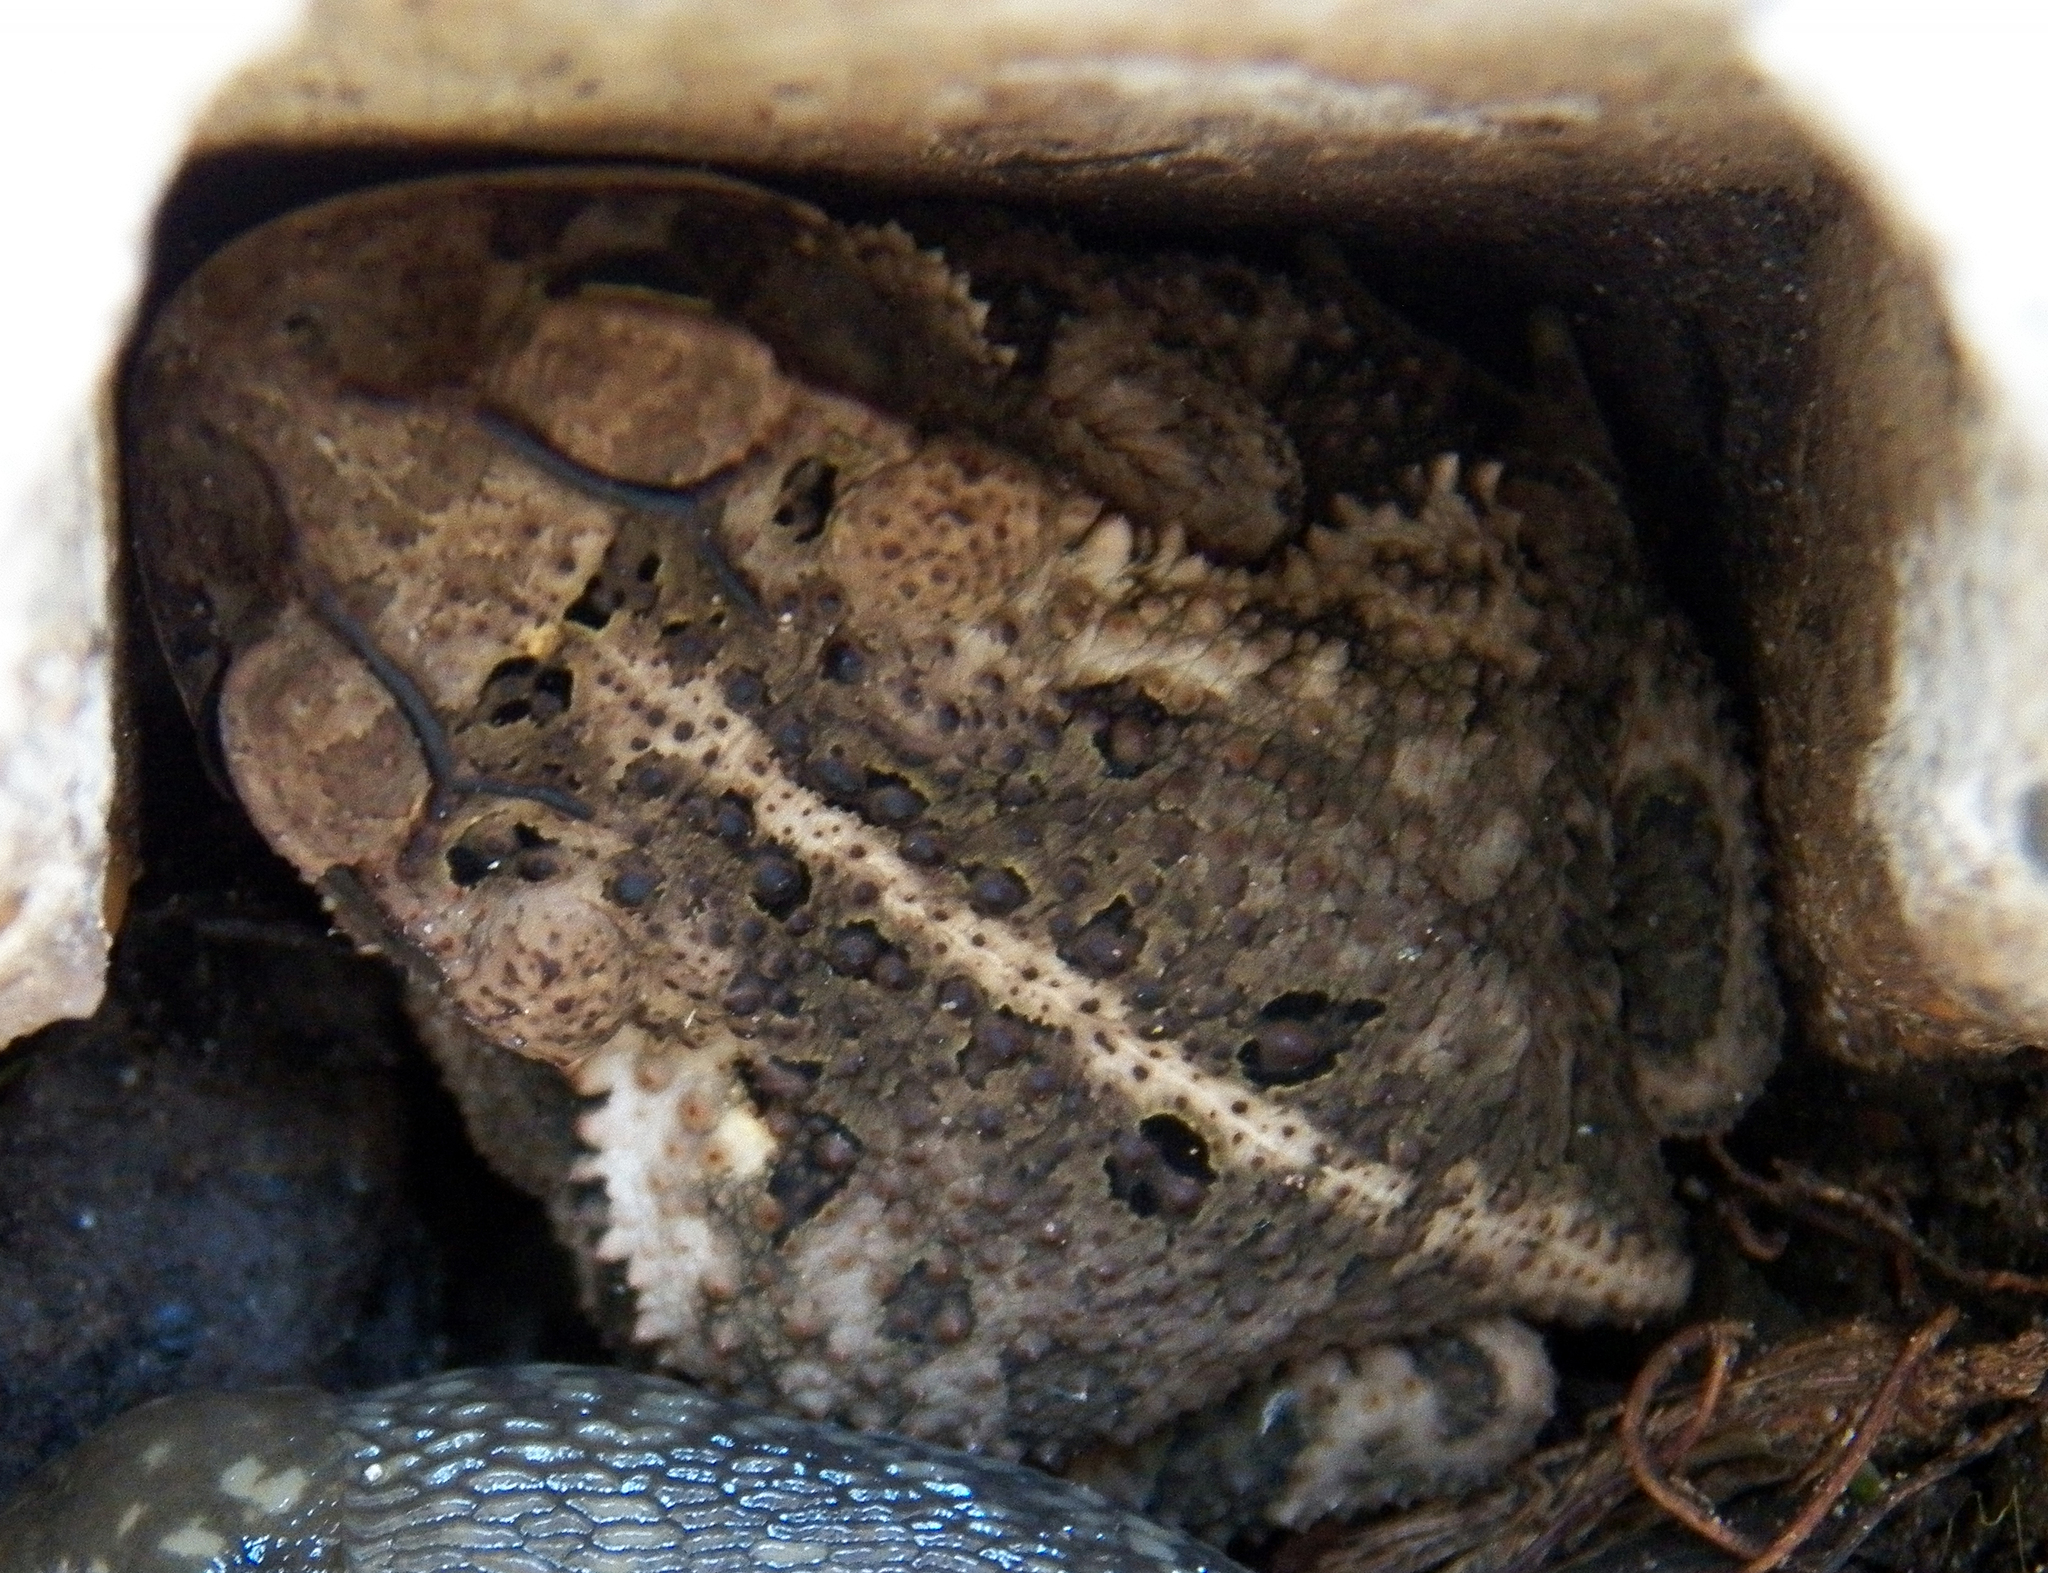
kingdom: Animalia
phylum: Chordata
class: Amphibia
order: Anura
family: Bufonidae
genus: Incilius
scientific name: Incilius nebulifer
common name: Gulf coast toad
